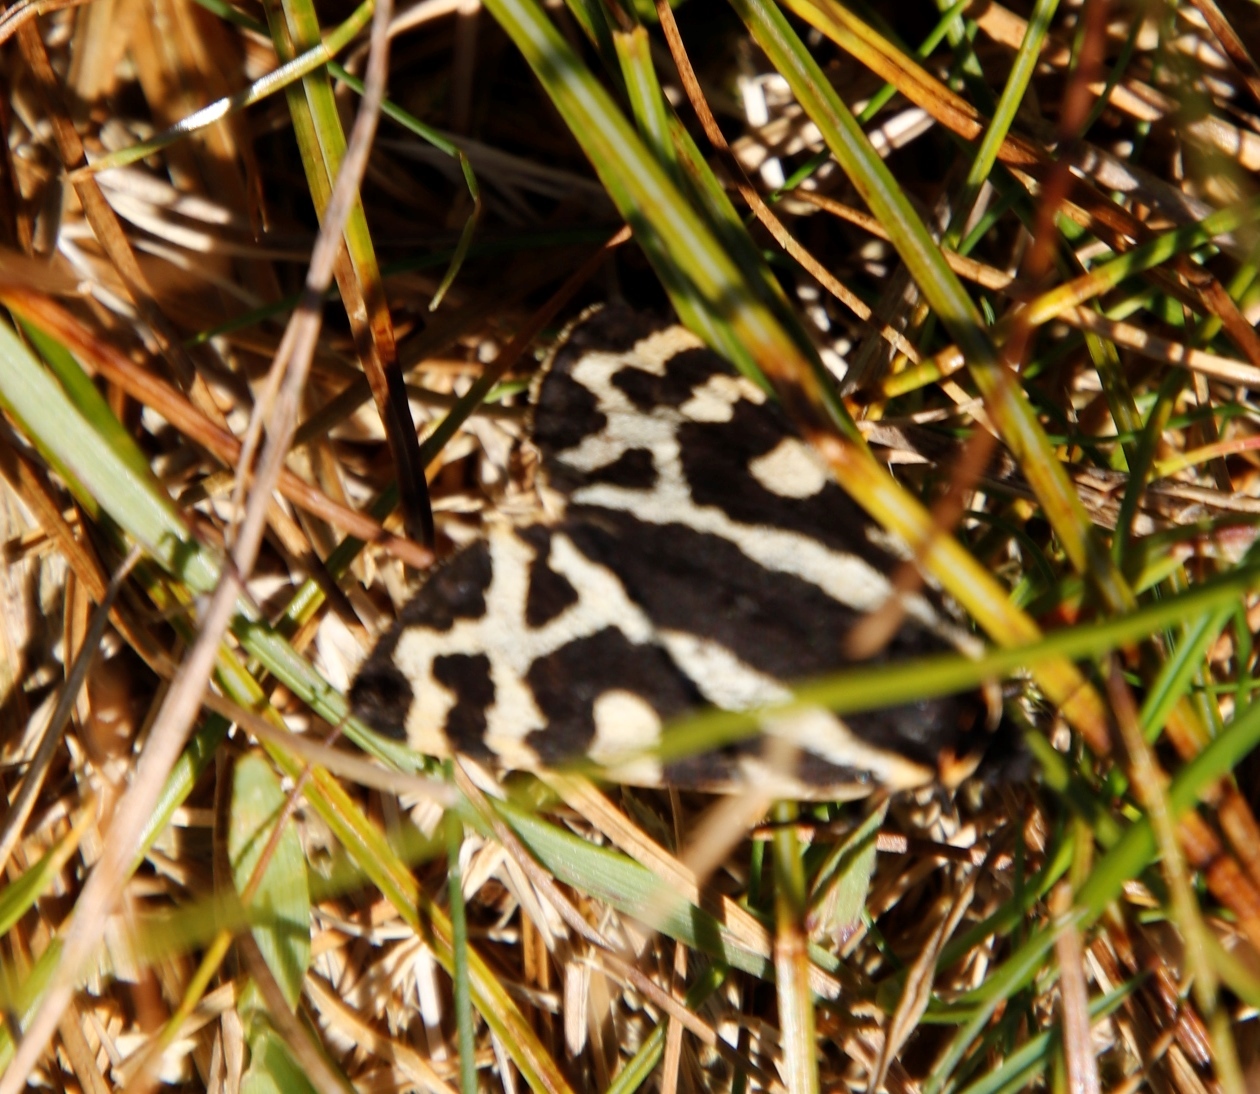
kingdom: Animalia
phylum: Arthropoda
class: Insecta
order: Lepidoptera
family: Erebidae
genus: Parasemia
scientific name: Parasemia plantaginis
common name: Wood tiger
